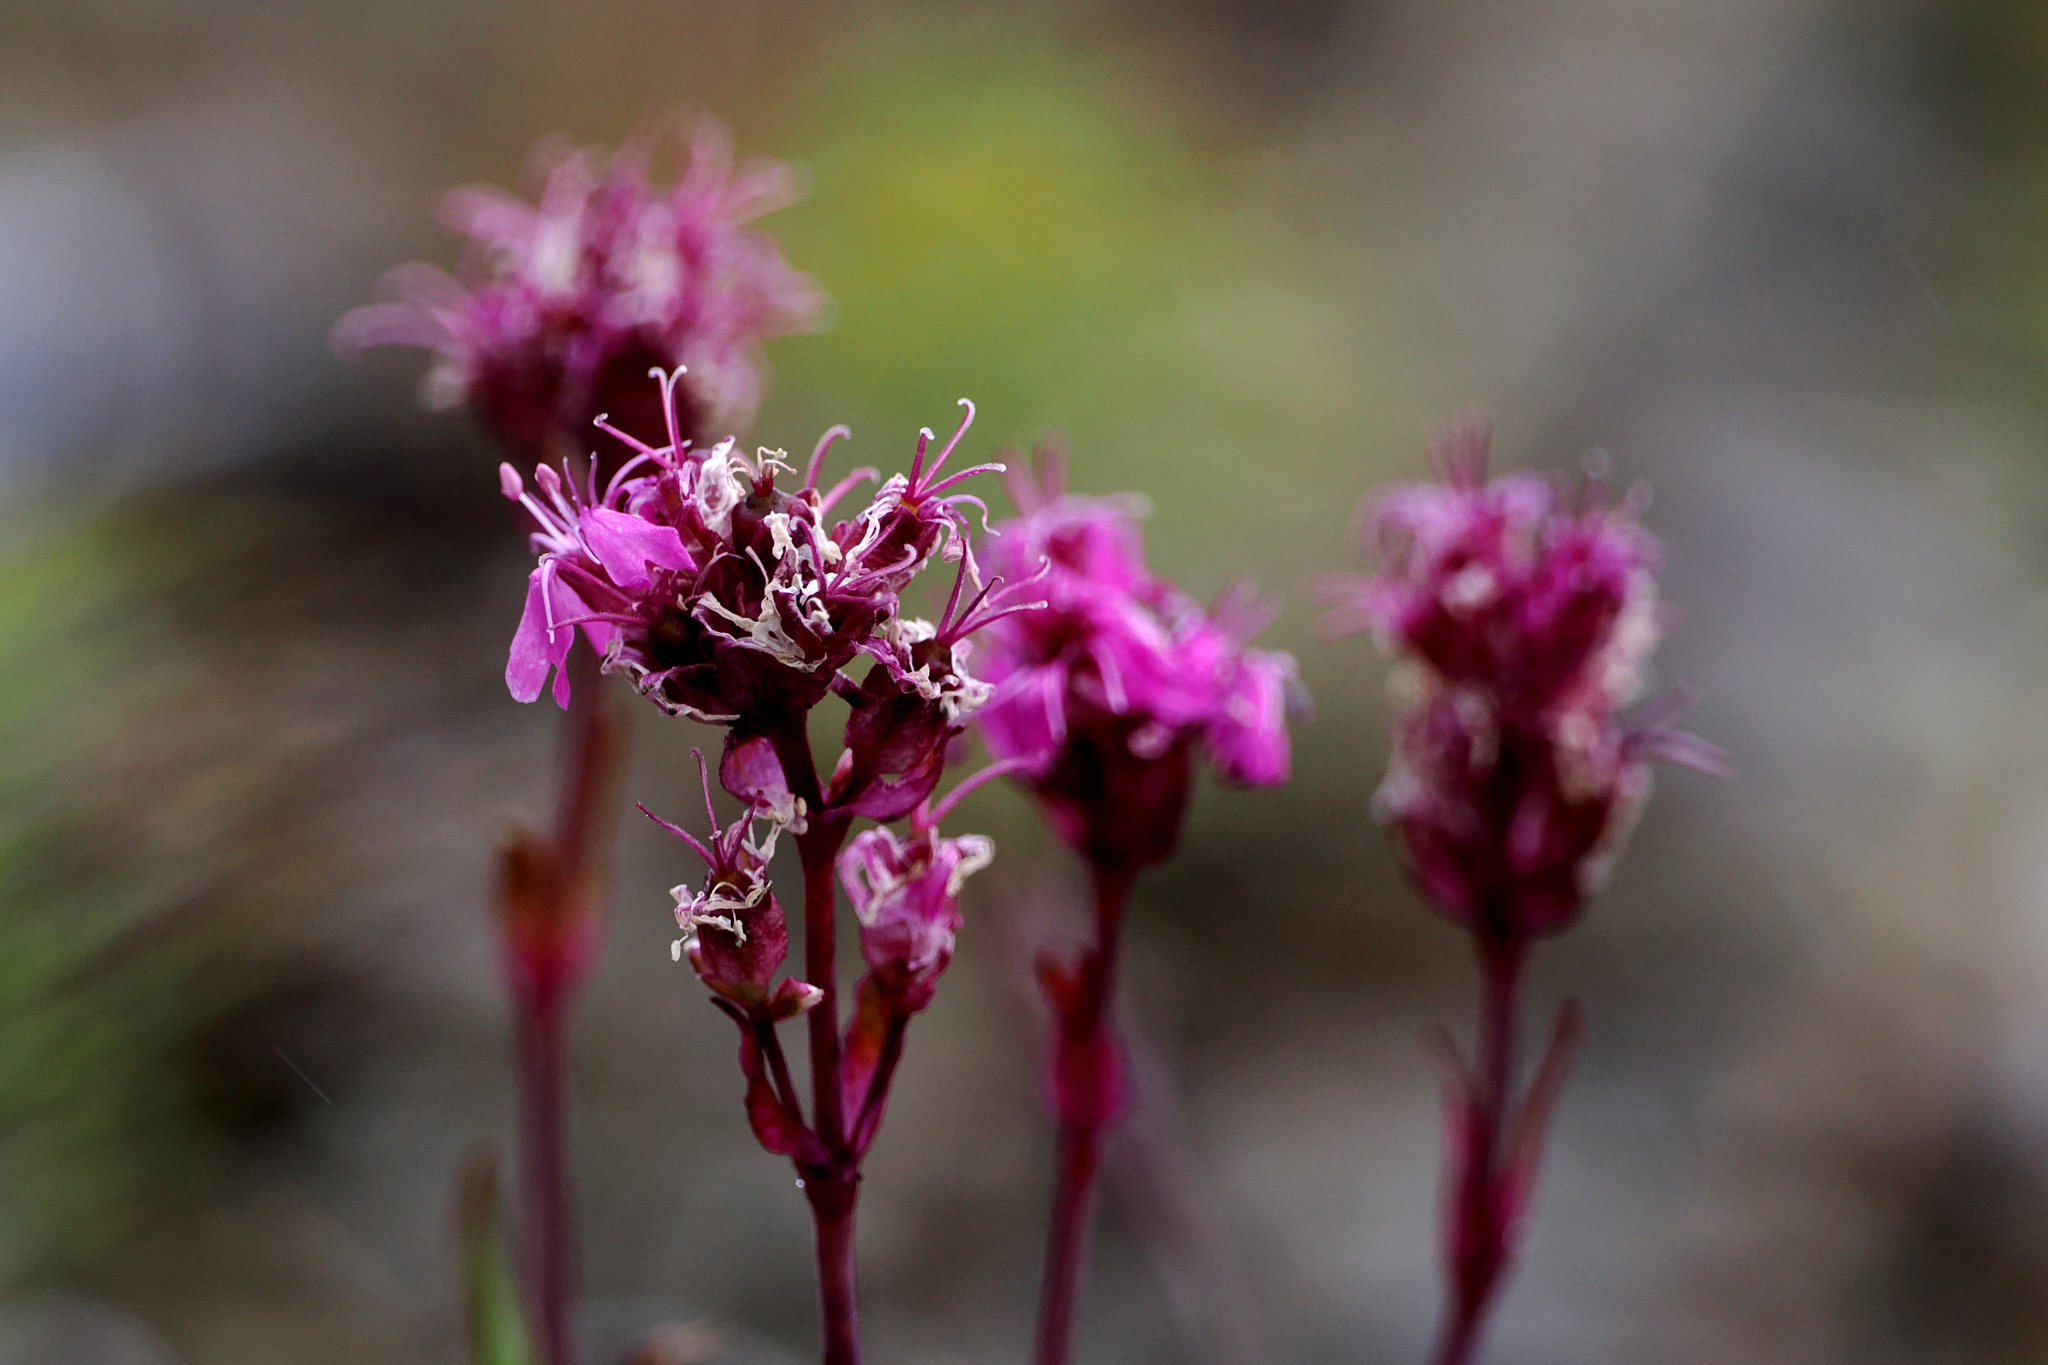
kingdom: Plantae
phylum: Tracheophyta
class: Magnoliopsida
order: Caryophyllales
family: Caryophyllaceae
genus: Viscaria
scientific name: Viscaria alpina
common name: Alpine campion
